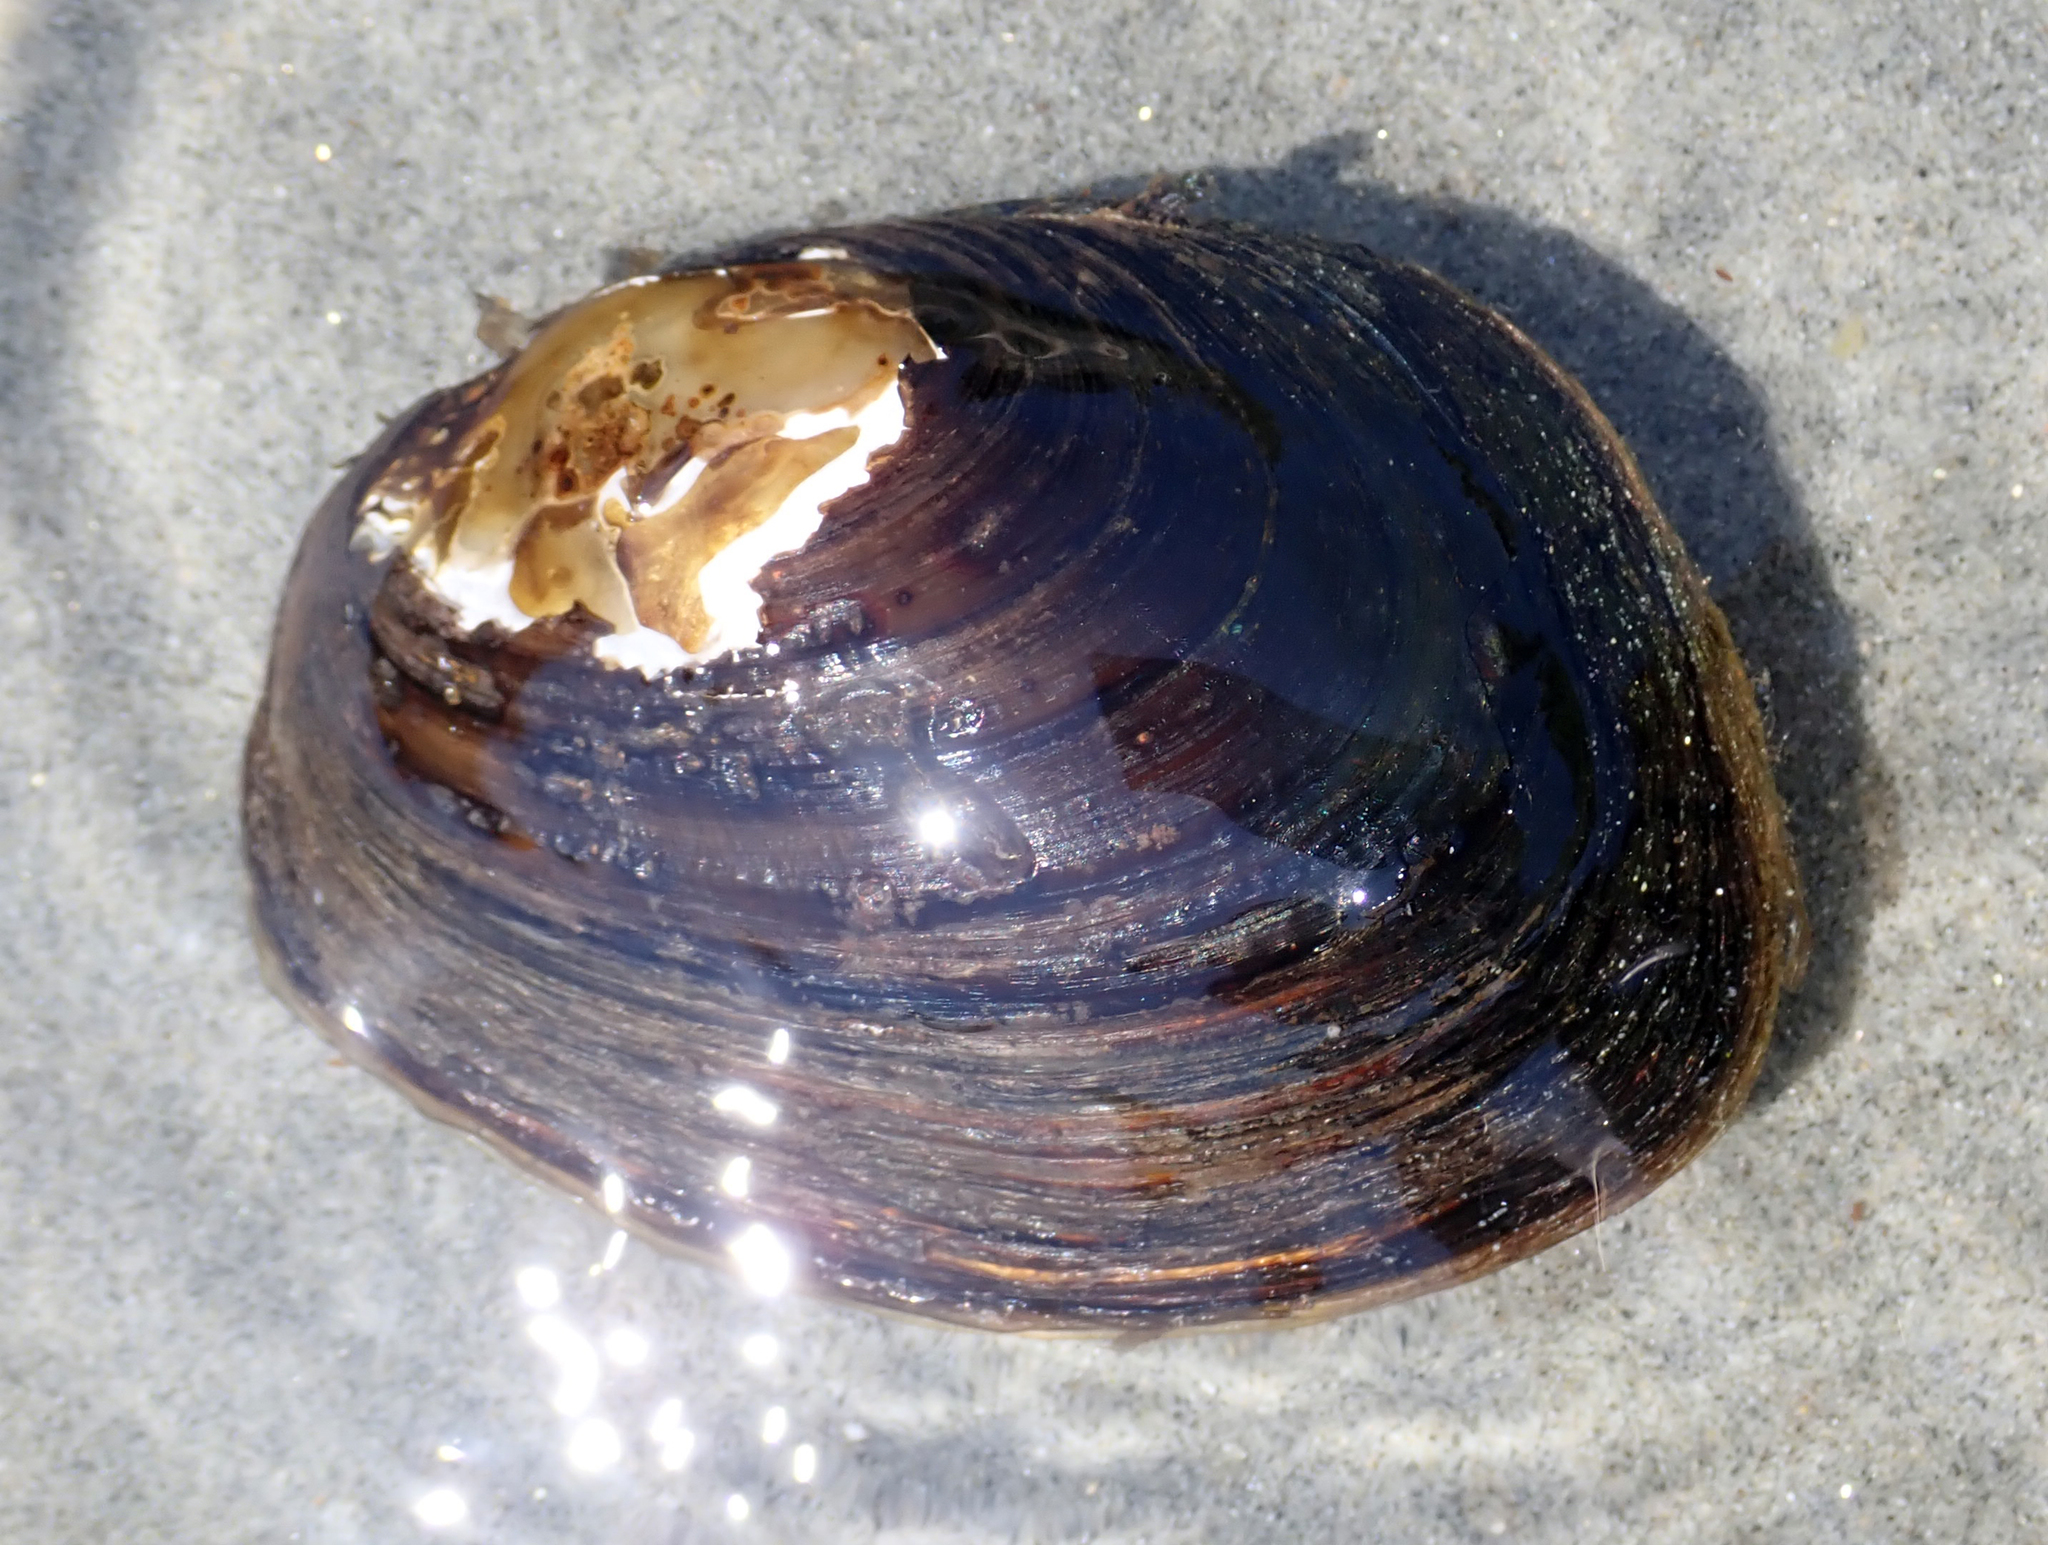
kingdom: Animalia
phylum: Mollusca
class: Bivalvia
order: Unionida
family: Hyriidae
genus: Echyridella
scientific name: Echyridella menziesii
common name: New zealand freshwater mussel
